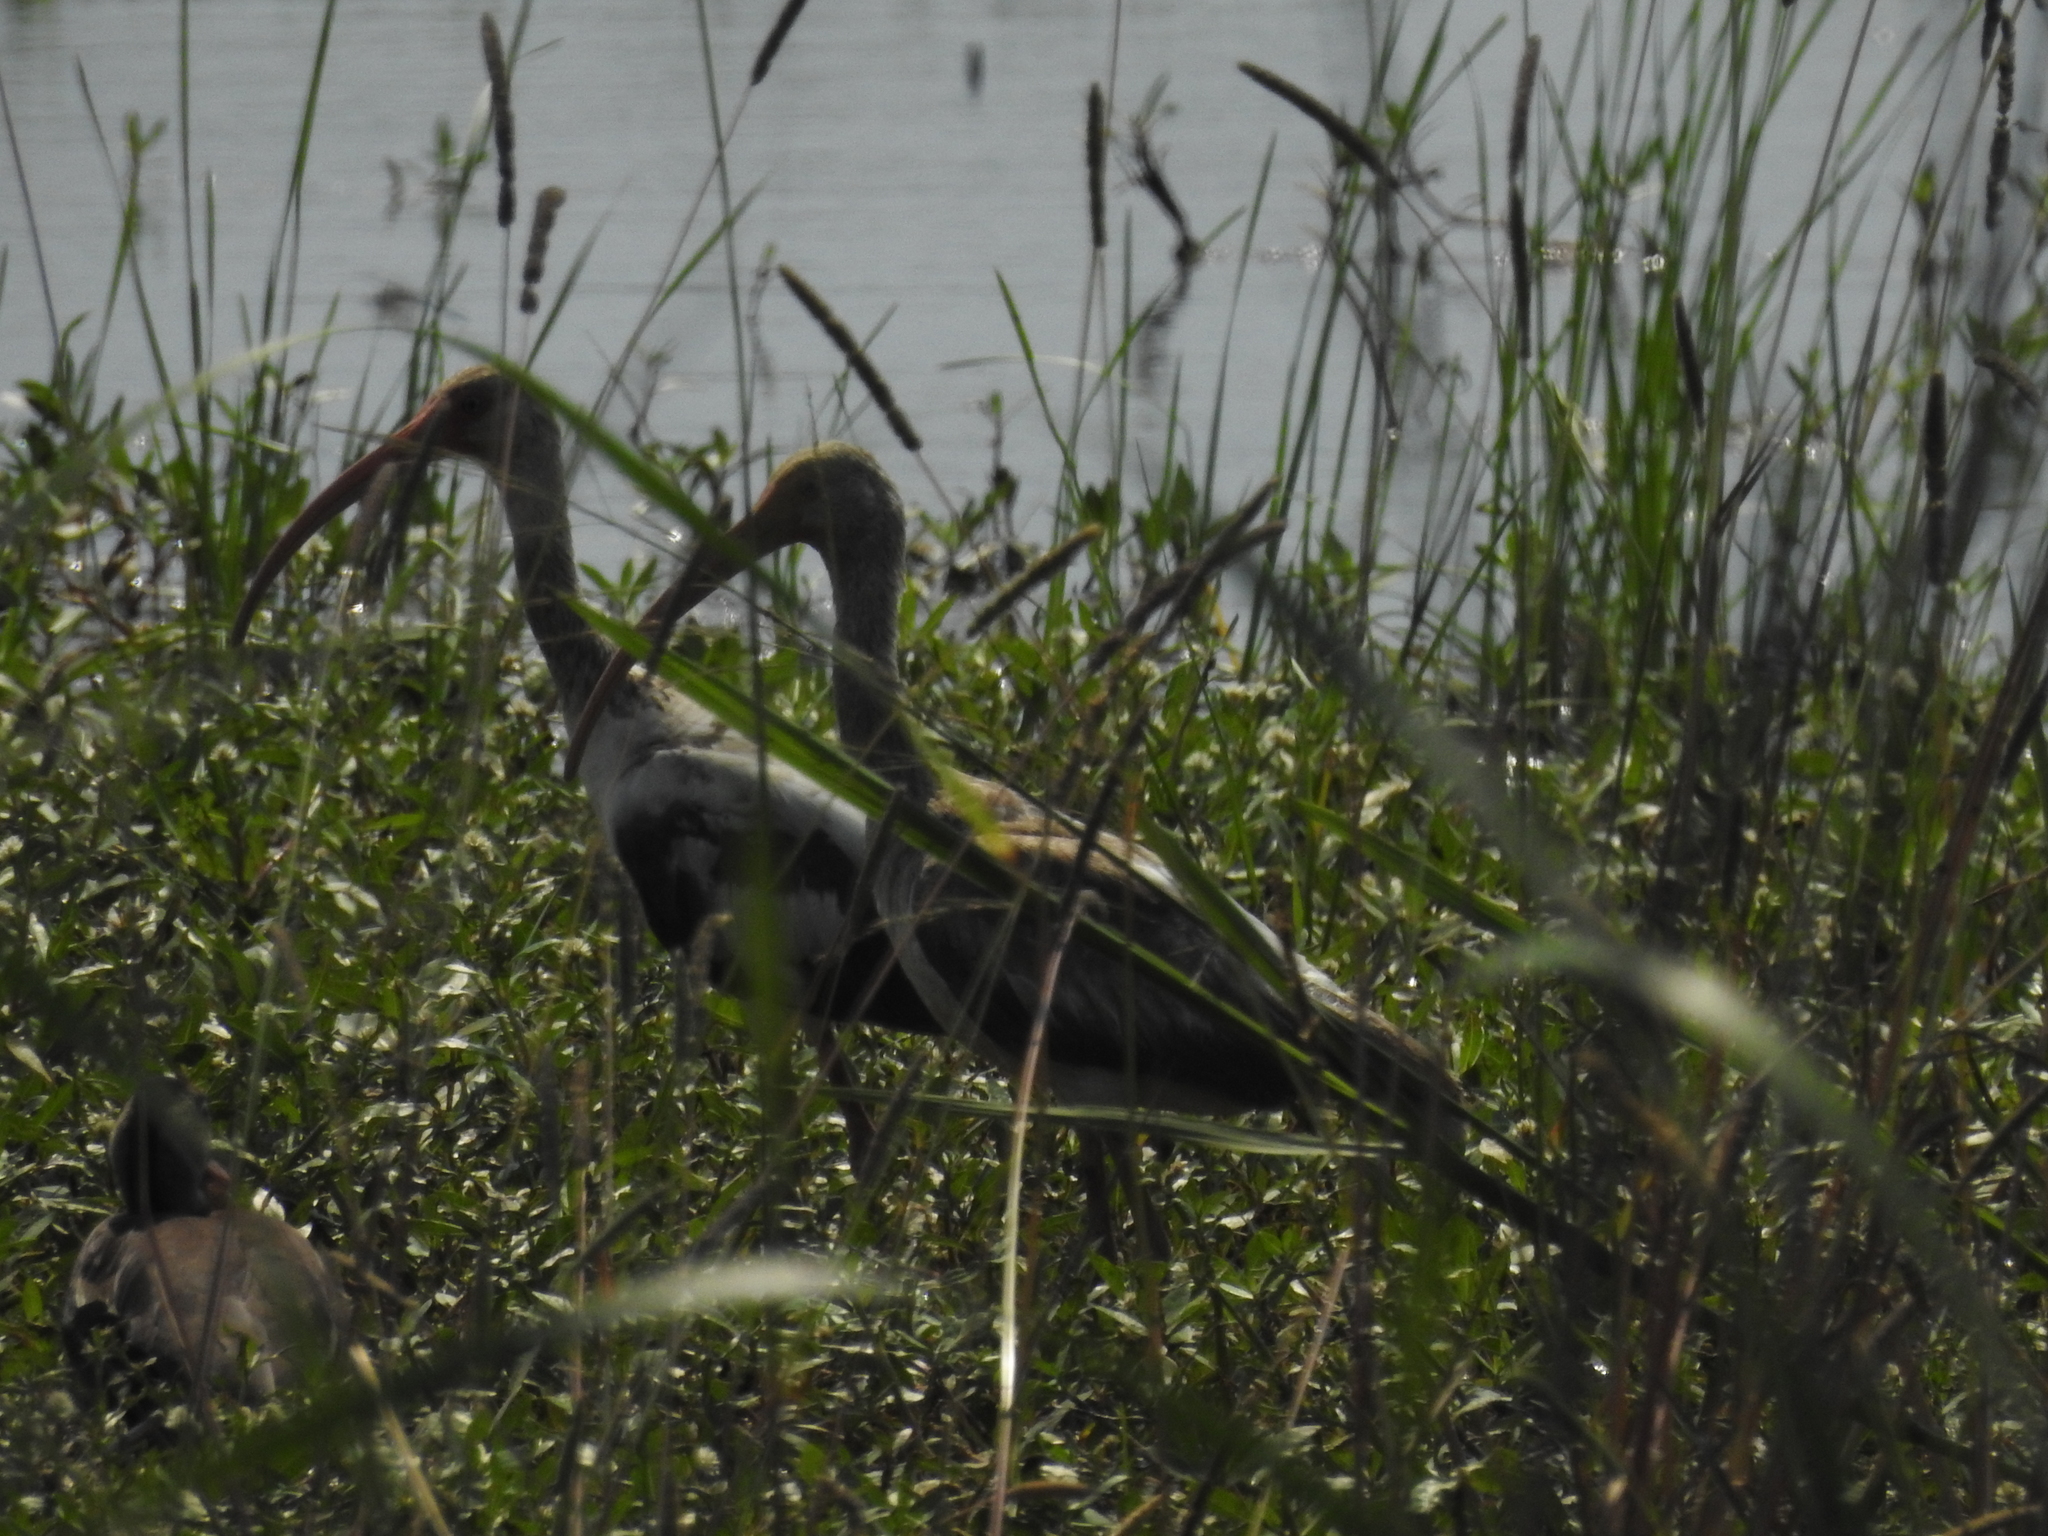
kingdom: Animalia
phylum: Chordata
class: Aves
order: Pelecaniformes
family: Threskiornithidae
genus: Eudocimus
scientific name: Eudocimus albus
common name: White ibis
